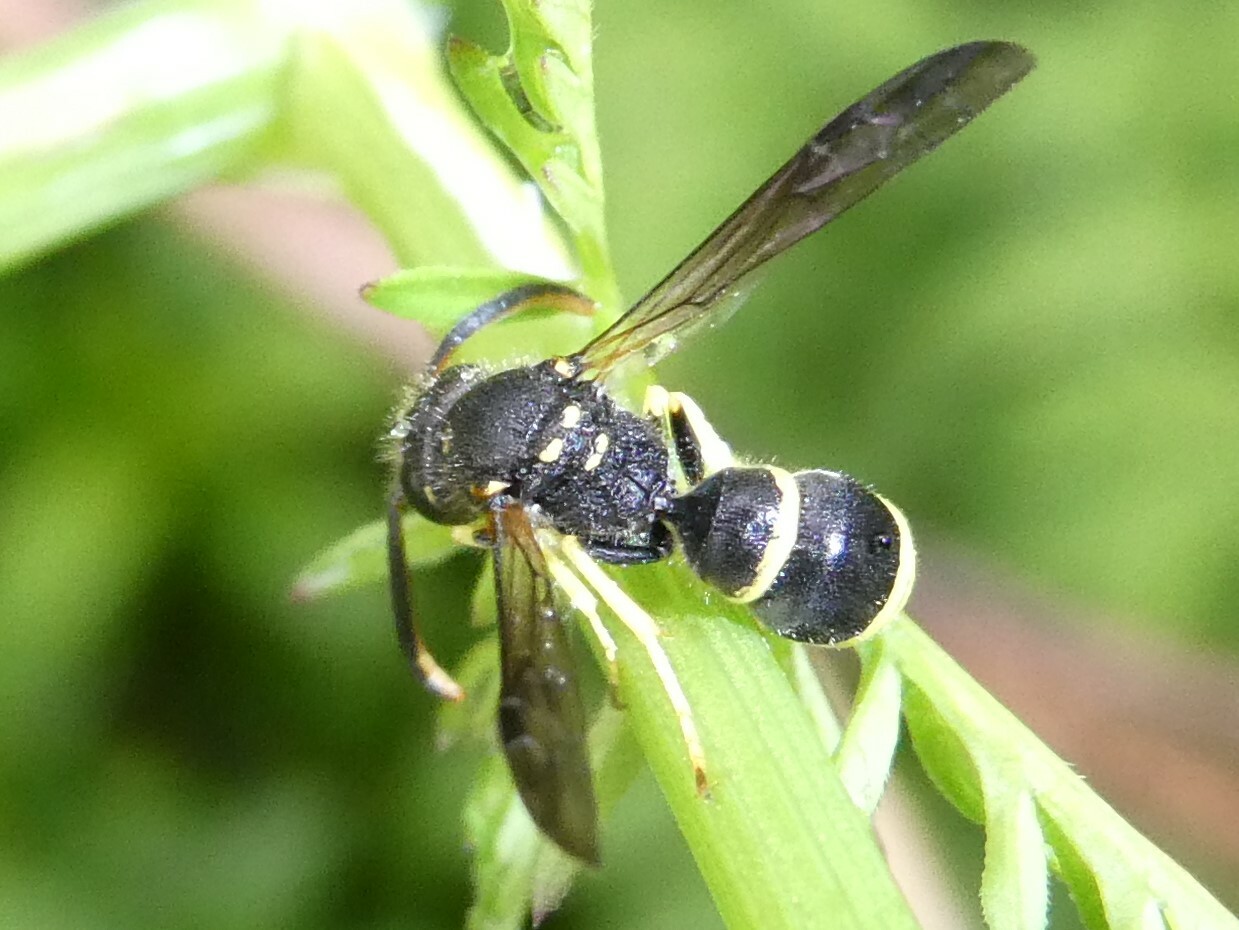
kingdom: Animalia
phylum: Arthropoda
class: Insecta
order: Hymenoptera
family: Vespidae
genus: Ancistrocerus
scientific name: Ancistrocerus
